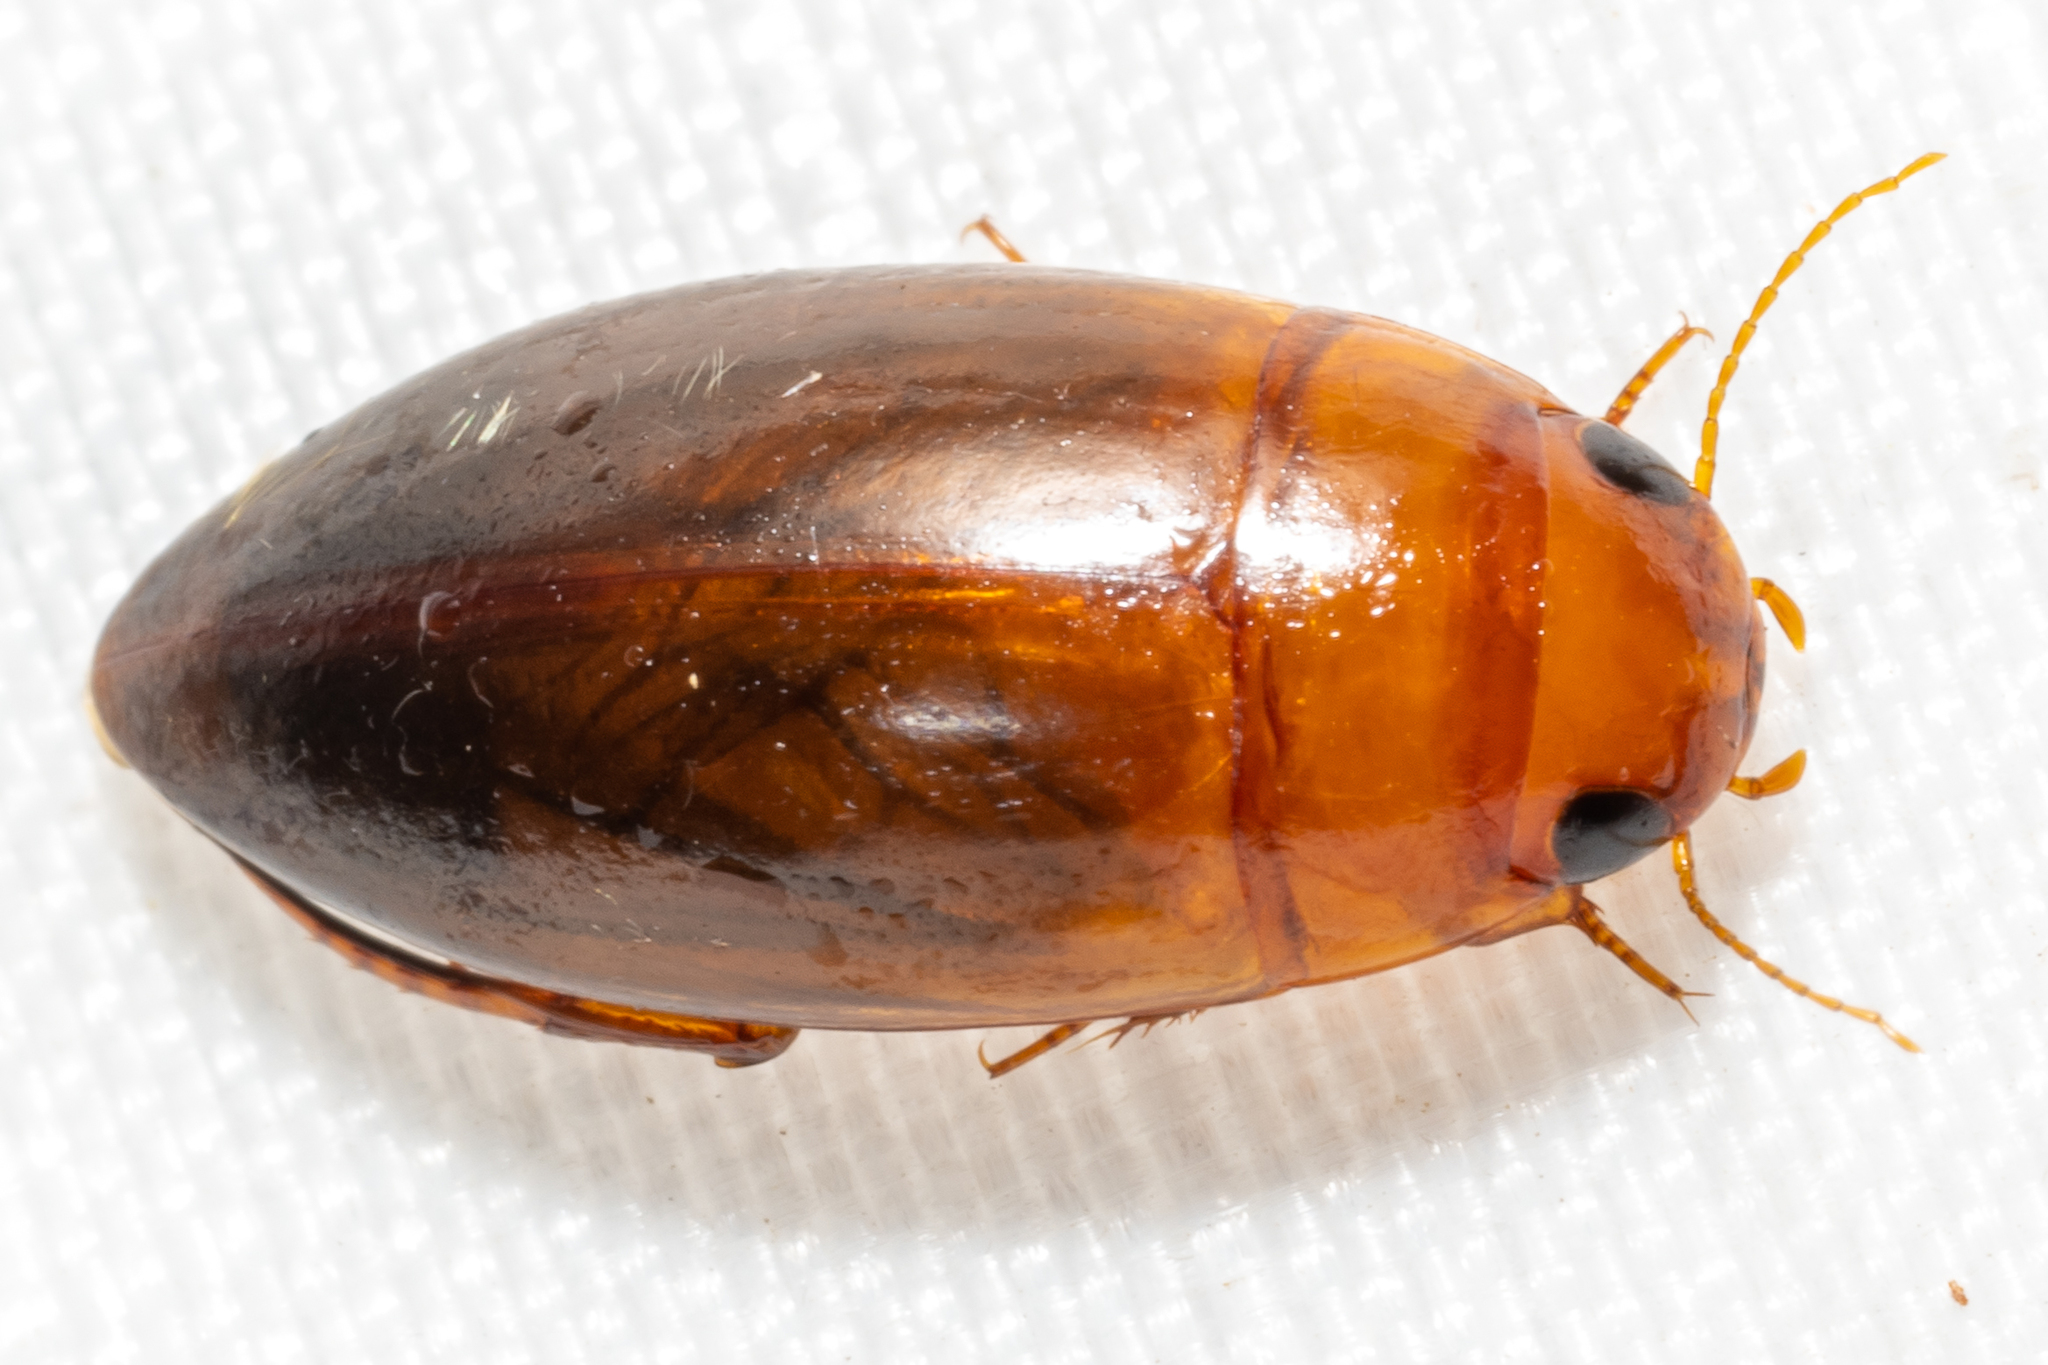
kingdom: Animalia
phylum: Arthropoda
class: Insecta
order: Coleoptera
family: Dytiscidae
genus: Matus
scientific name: Matus
